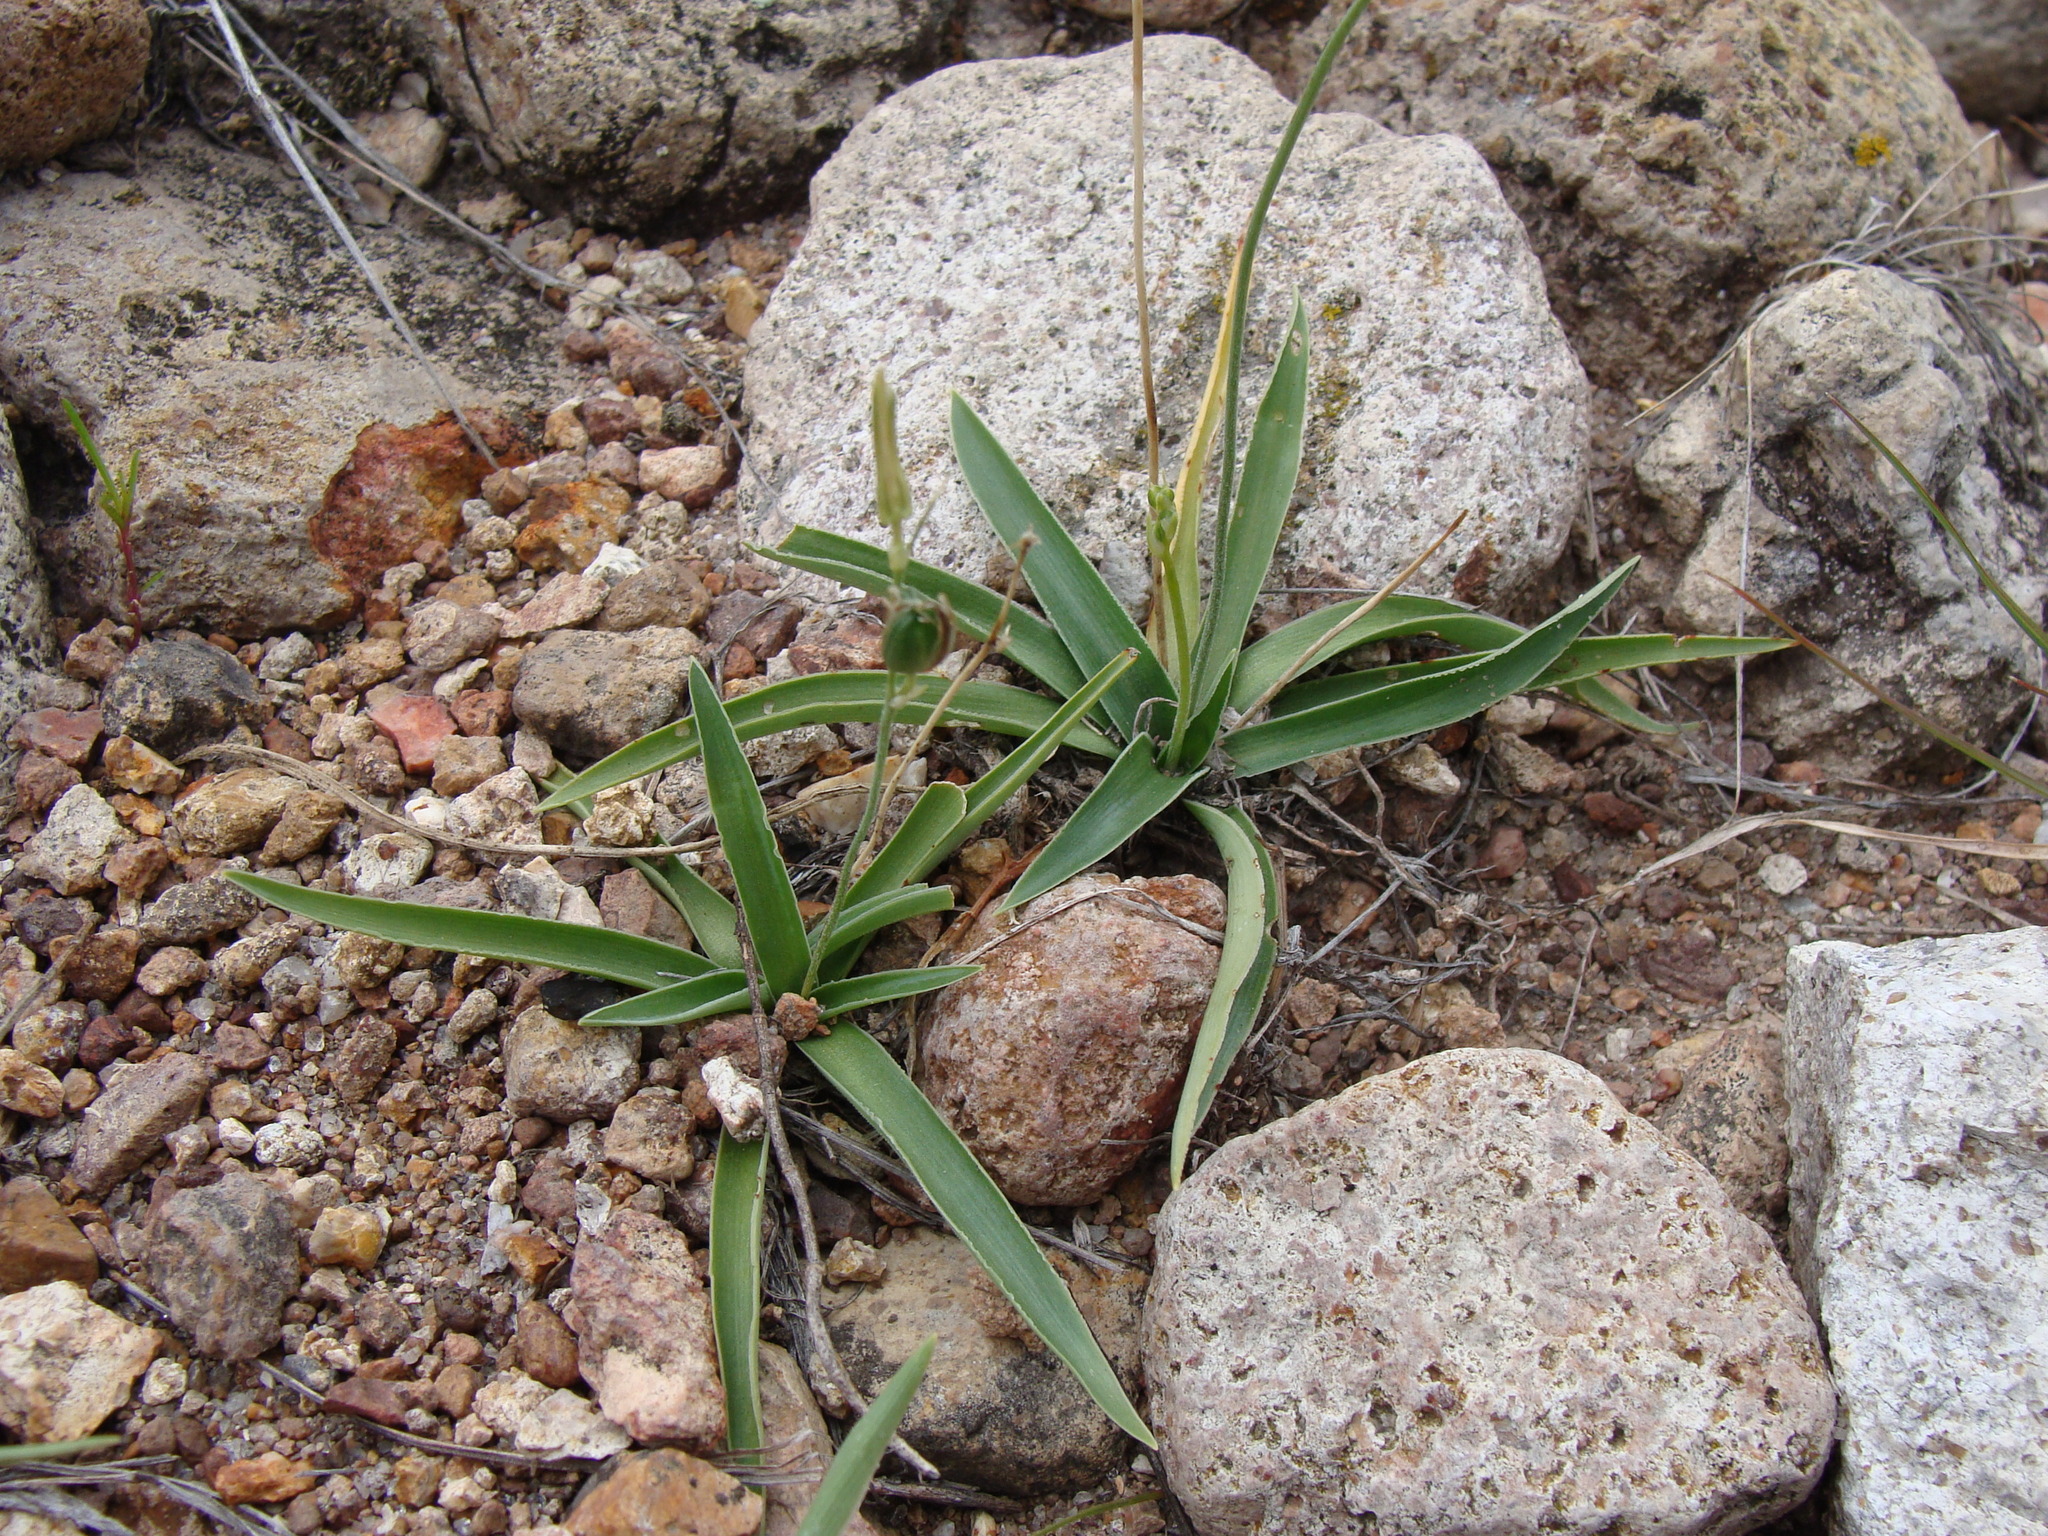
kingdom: Plantae
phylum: Tracheophyta
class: Liliopsida
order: Asparagales
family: Asparagaceae
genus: Echeandia
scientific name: Echeandia nana
